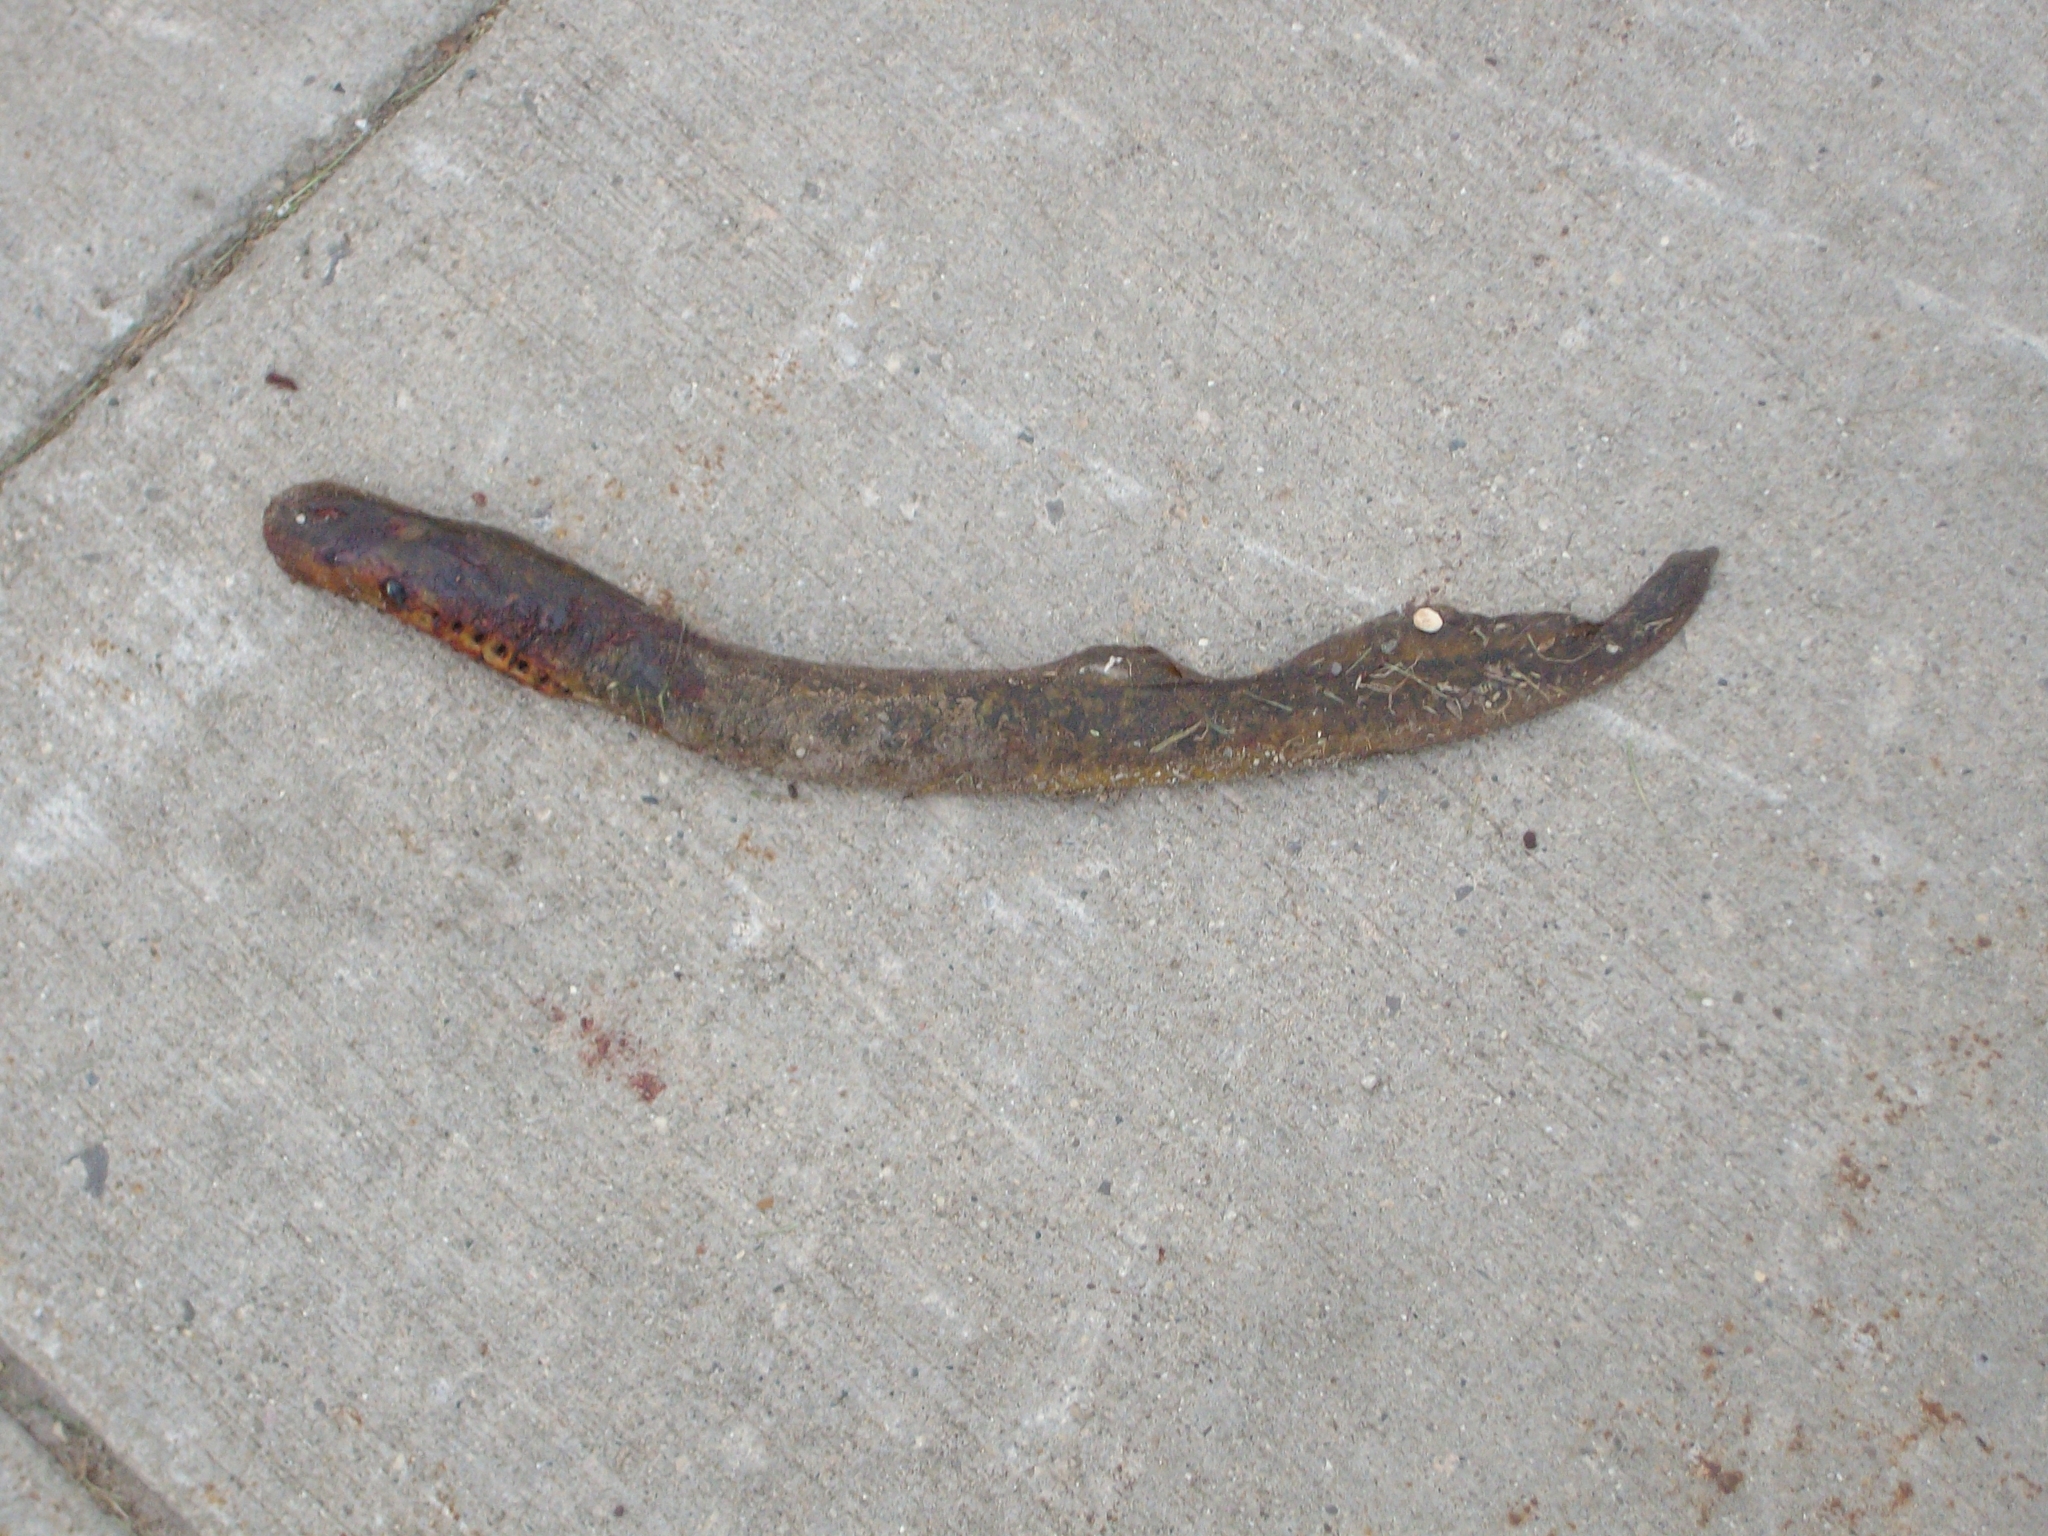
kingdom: Animalia
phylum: Chordata
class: Petromyzonti
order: Petromyzontiformes
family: Petromyzontidae
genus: Petromyzon
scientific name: Petromyzon marinus
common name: Sea lamprey
